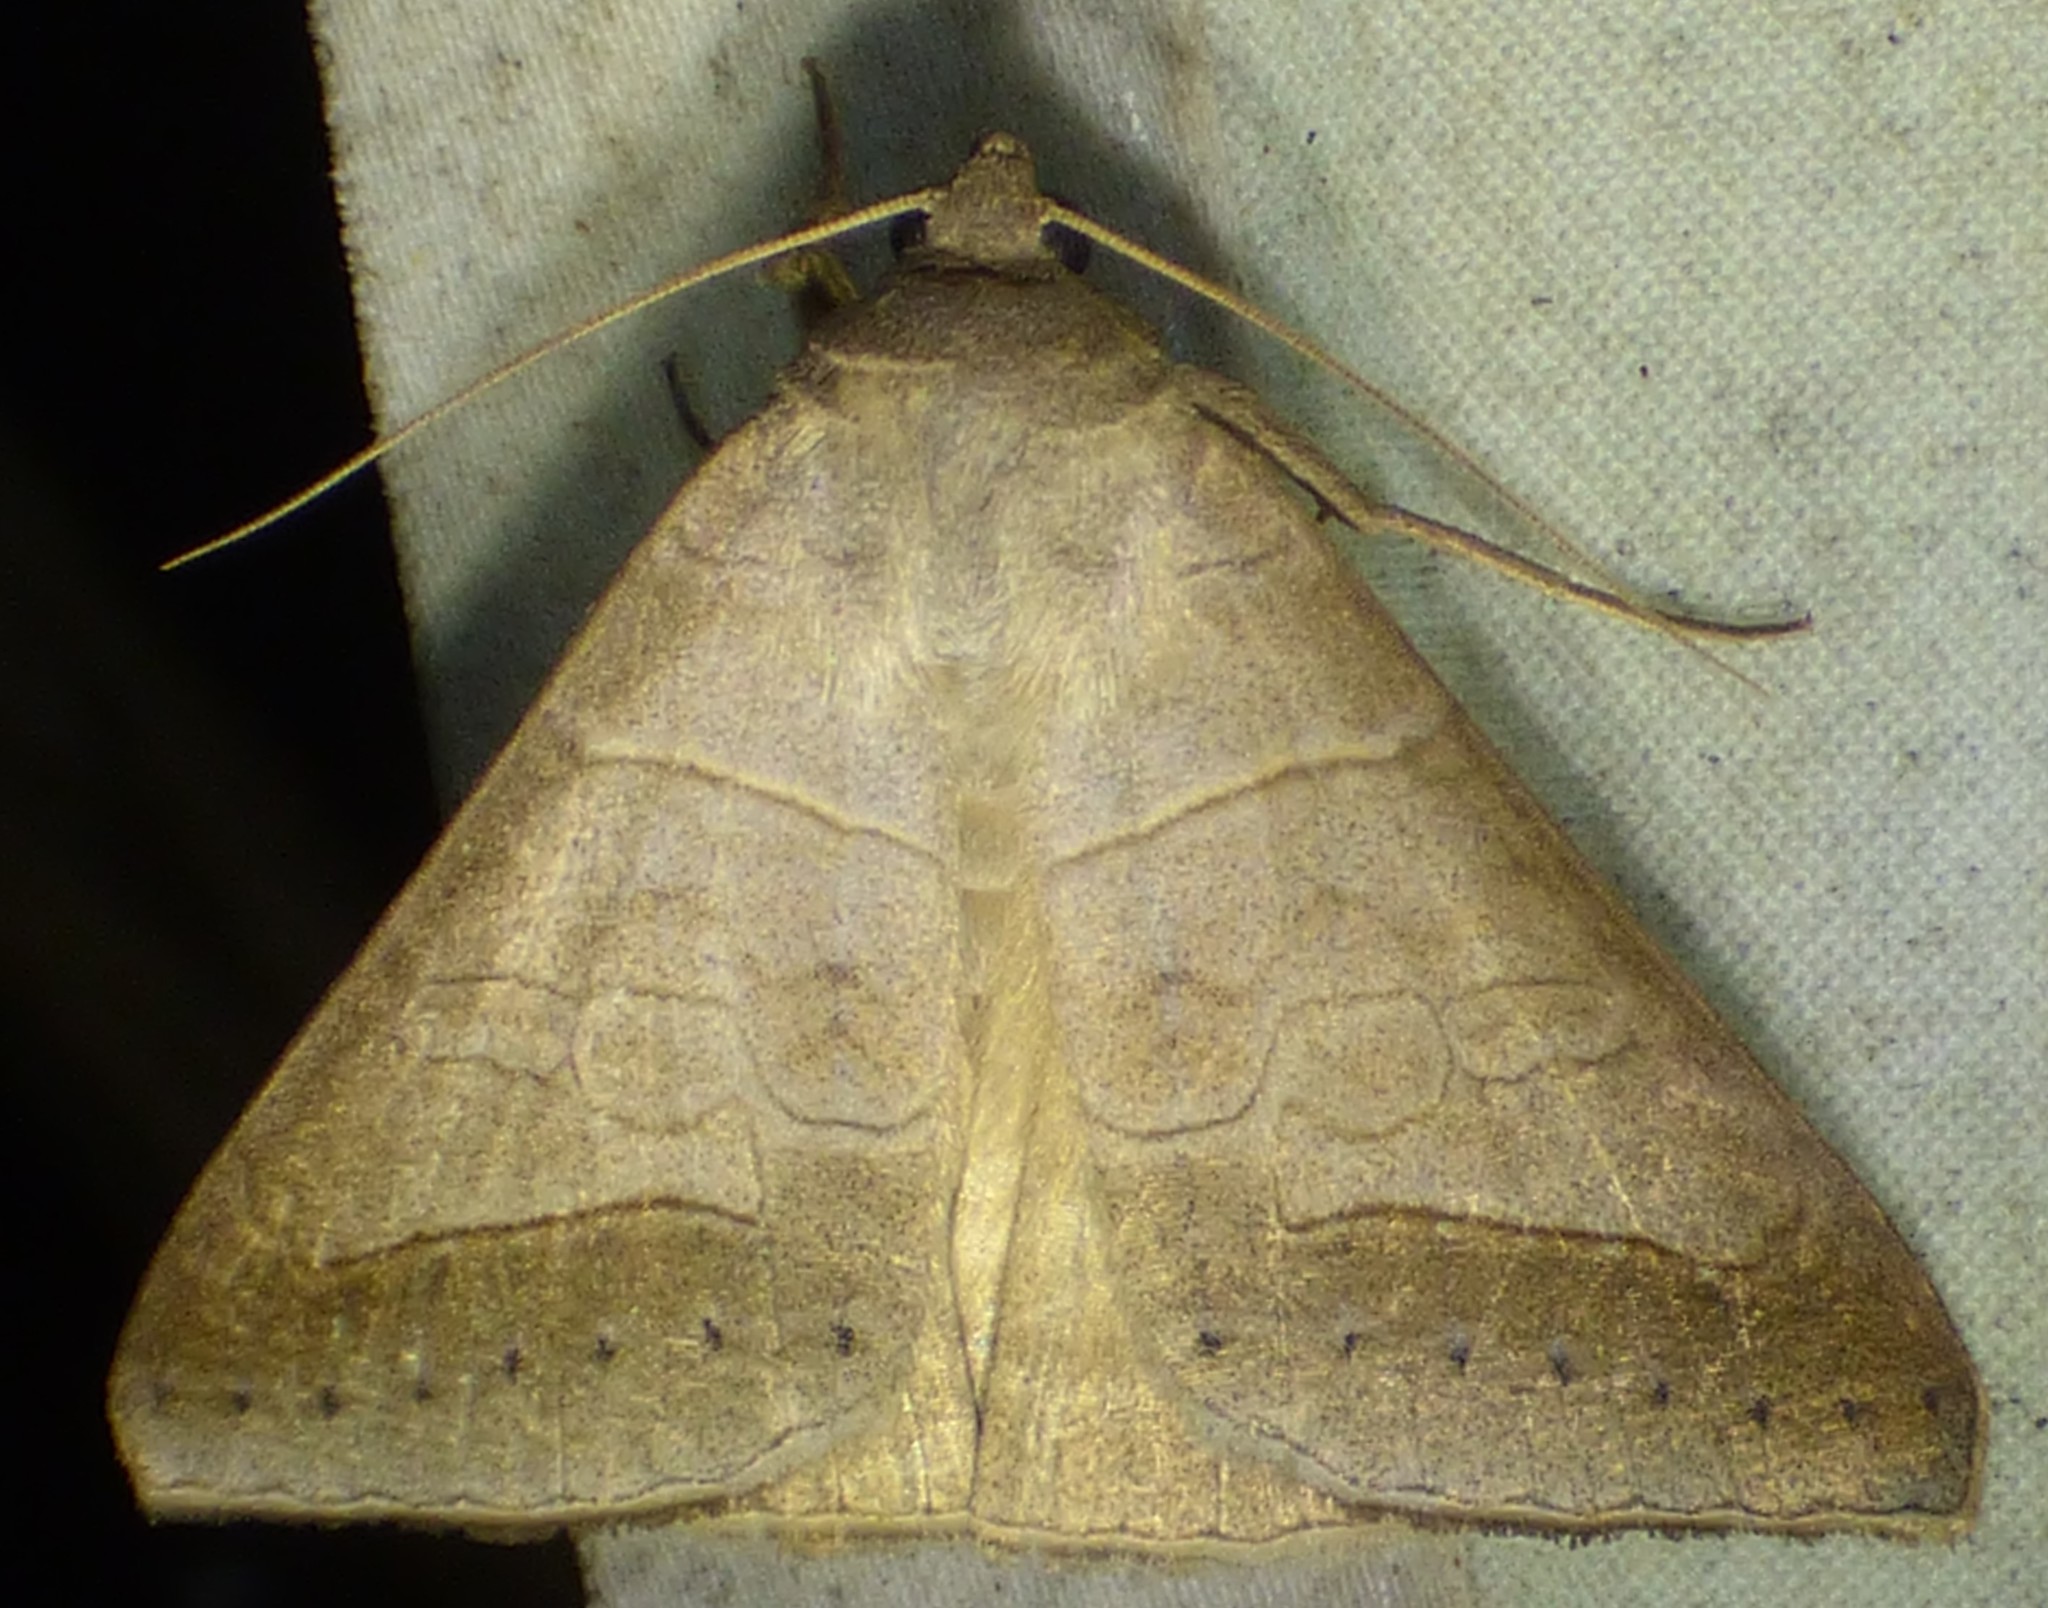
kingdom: Animalia
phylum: Arthropoda
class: Insecta
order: Lepidoptera
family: Erebidae
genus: Mocis
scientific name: Mocis marcida
